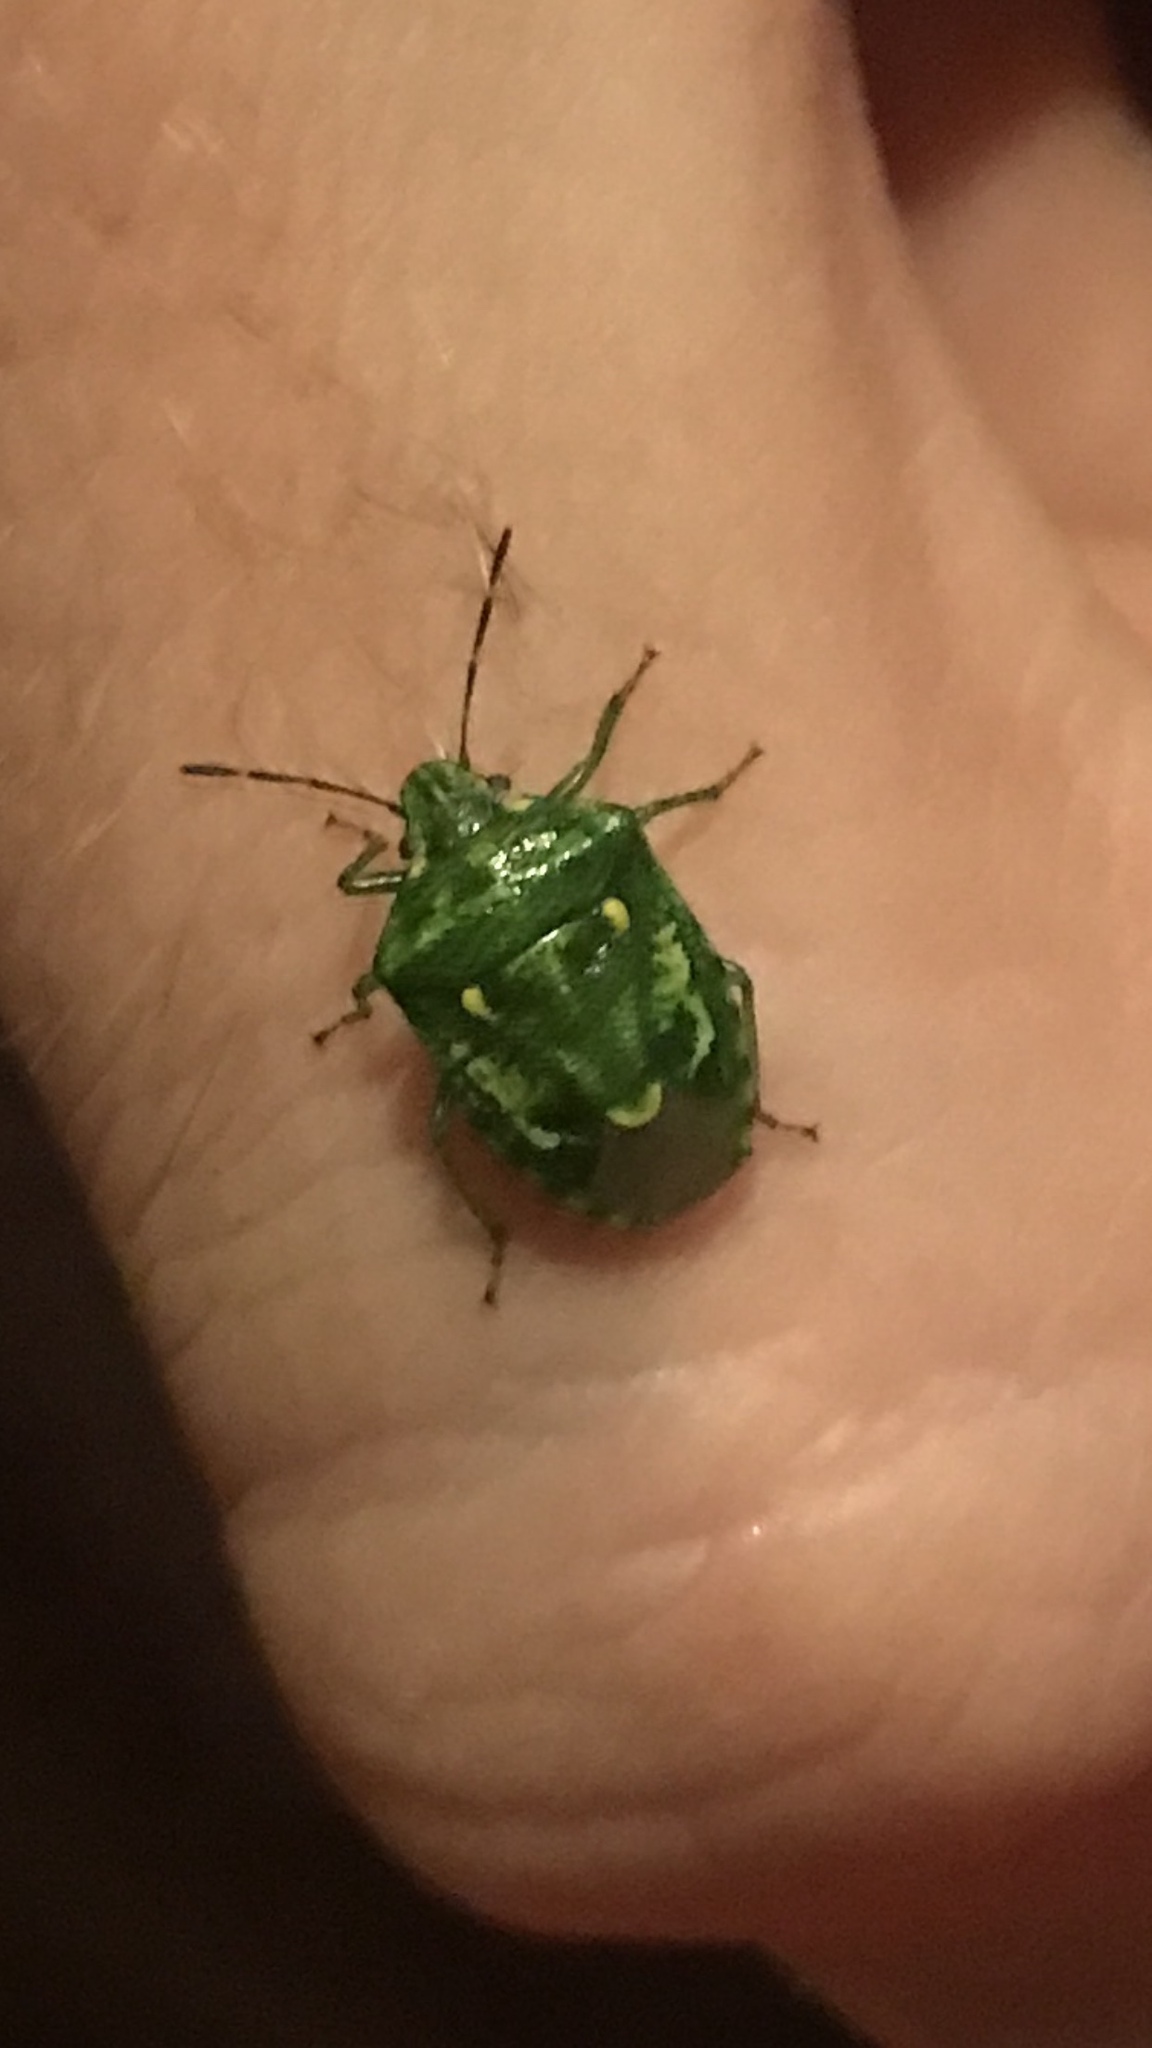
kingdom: Animalia
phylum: Arthropoda
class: Insecta
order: Hemiptera
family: Pentatomidae
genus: Banasa
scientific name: Banasa euchlora
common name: Cedar berry bug
